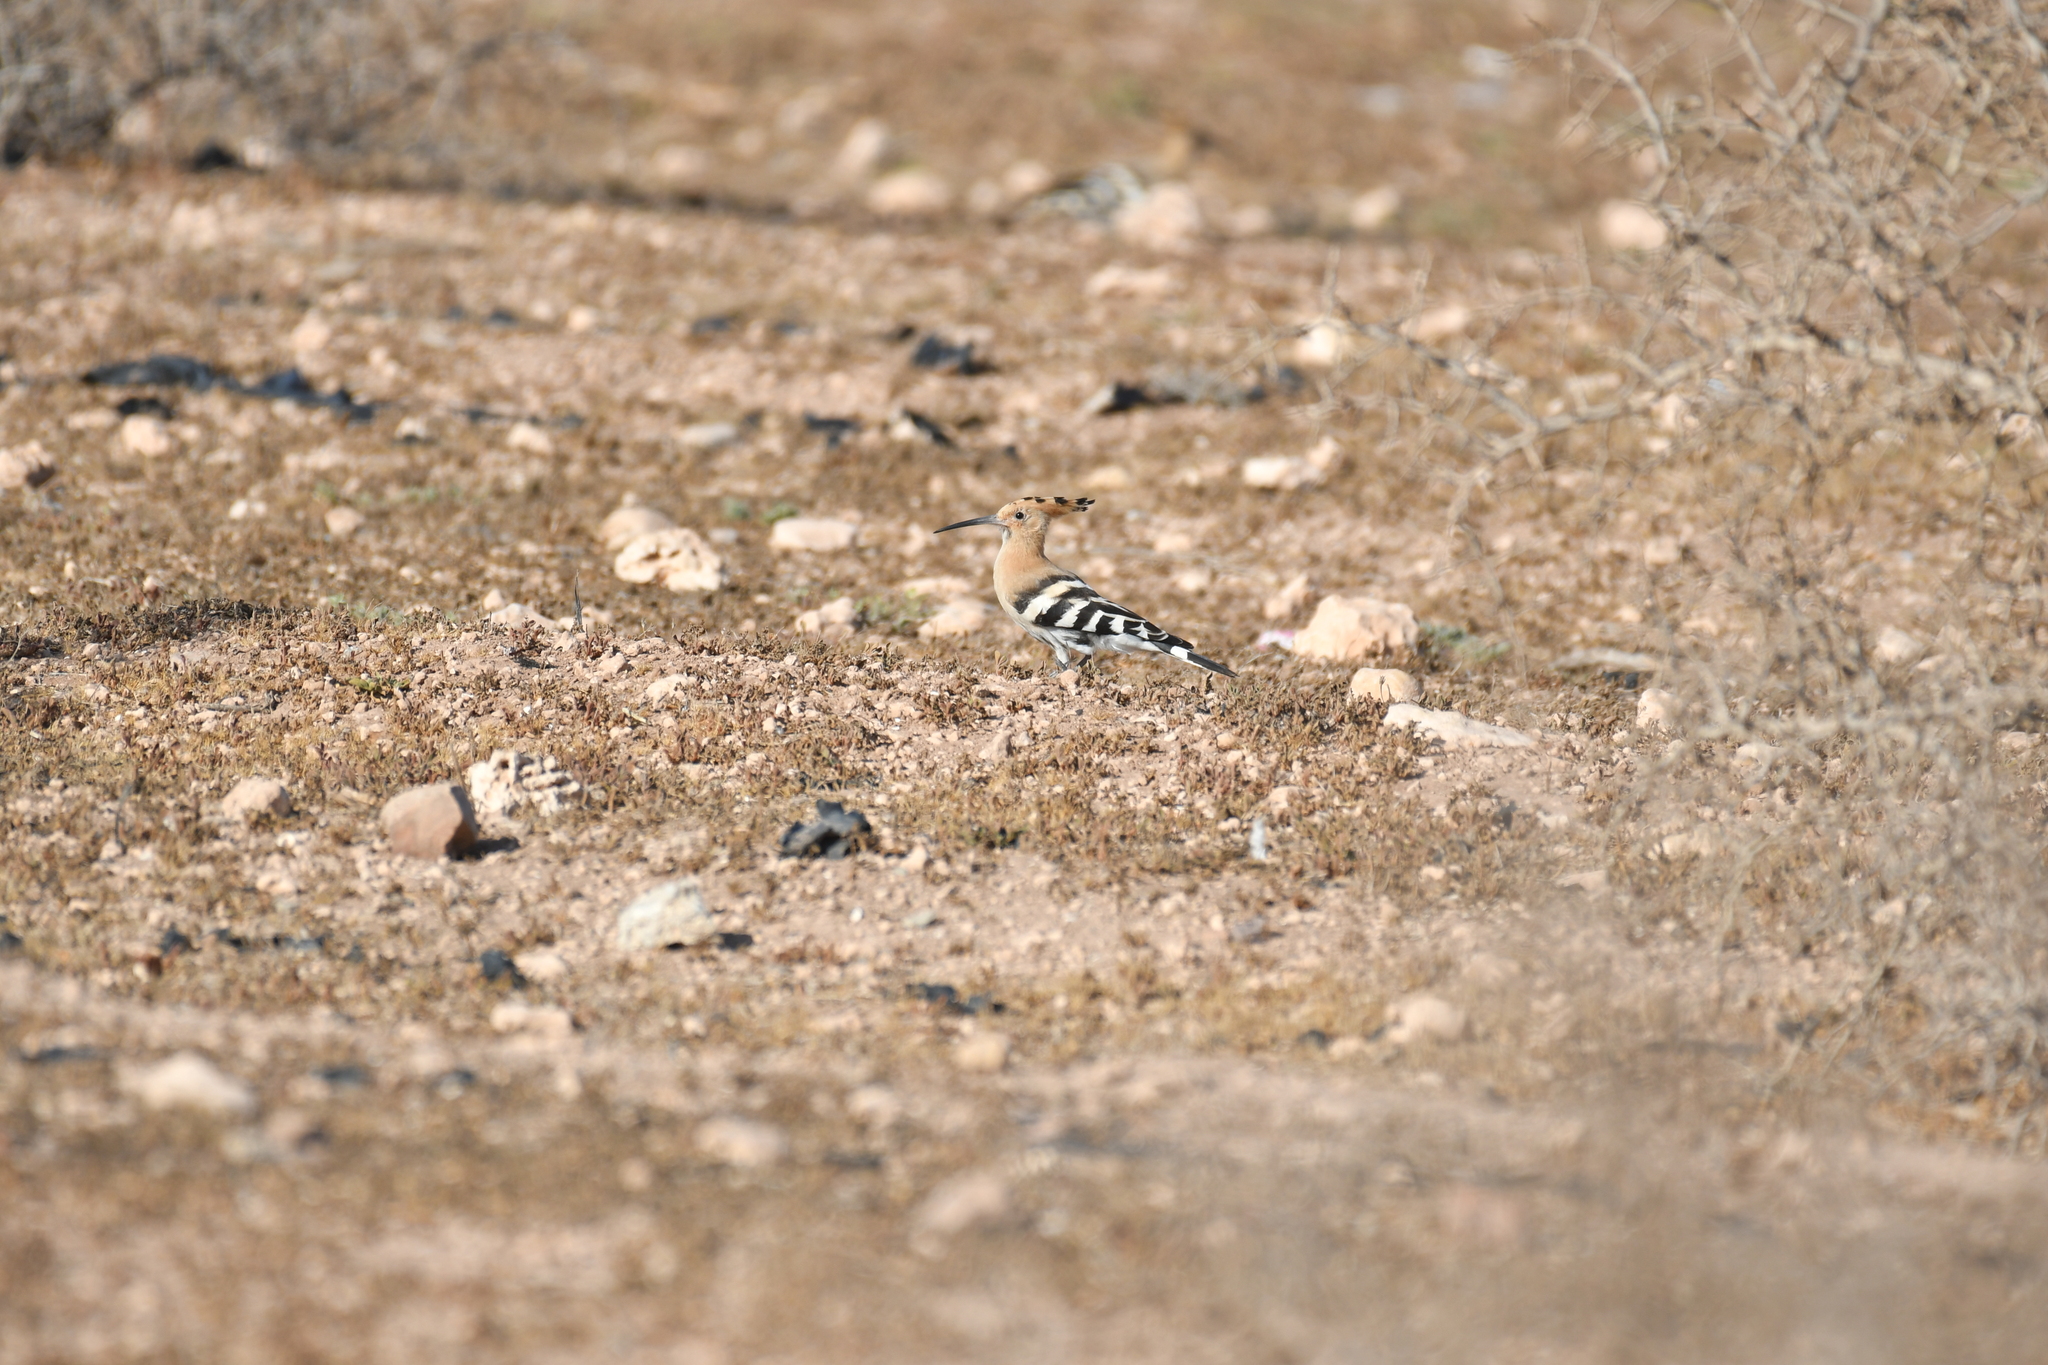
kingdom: Animalia
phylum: Chordata
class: Aves
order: Bucerotiformes
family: Upupidae
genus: Upupa
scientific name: Upupa epops
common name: Eurasian hoopoe
